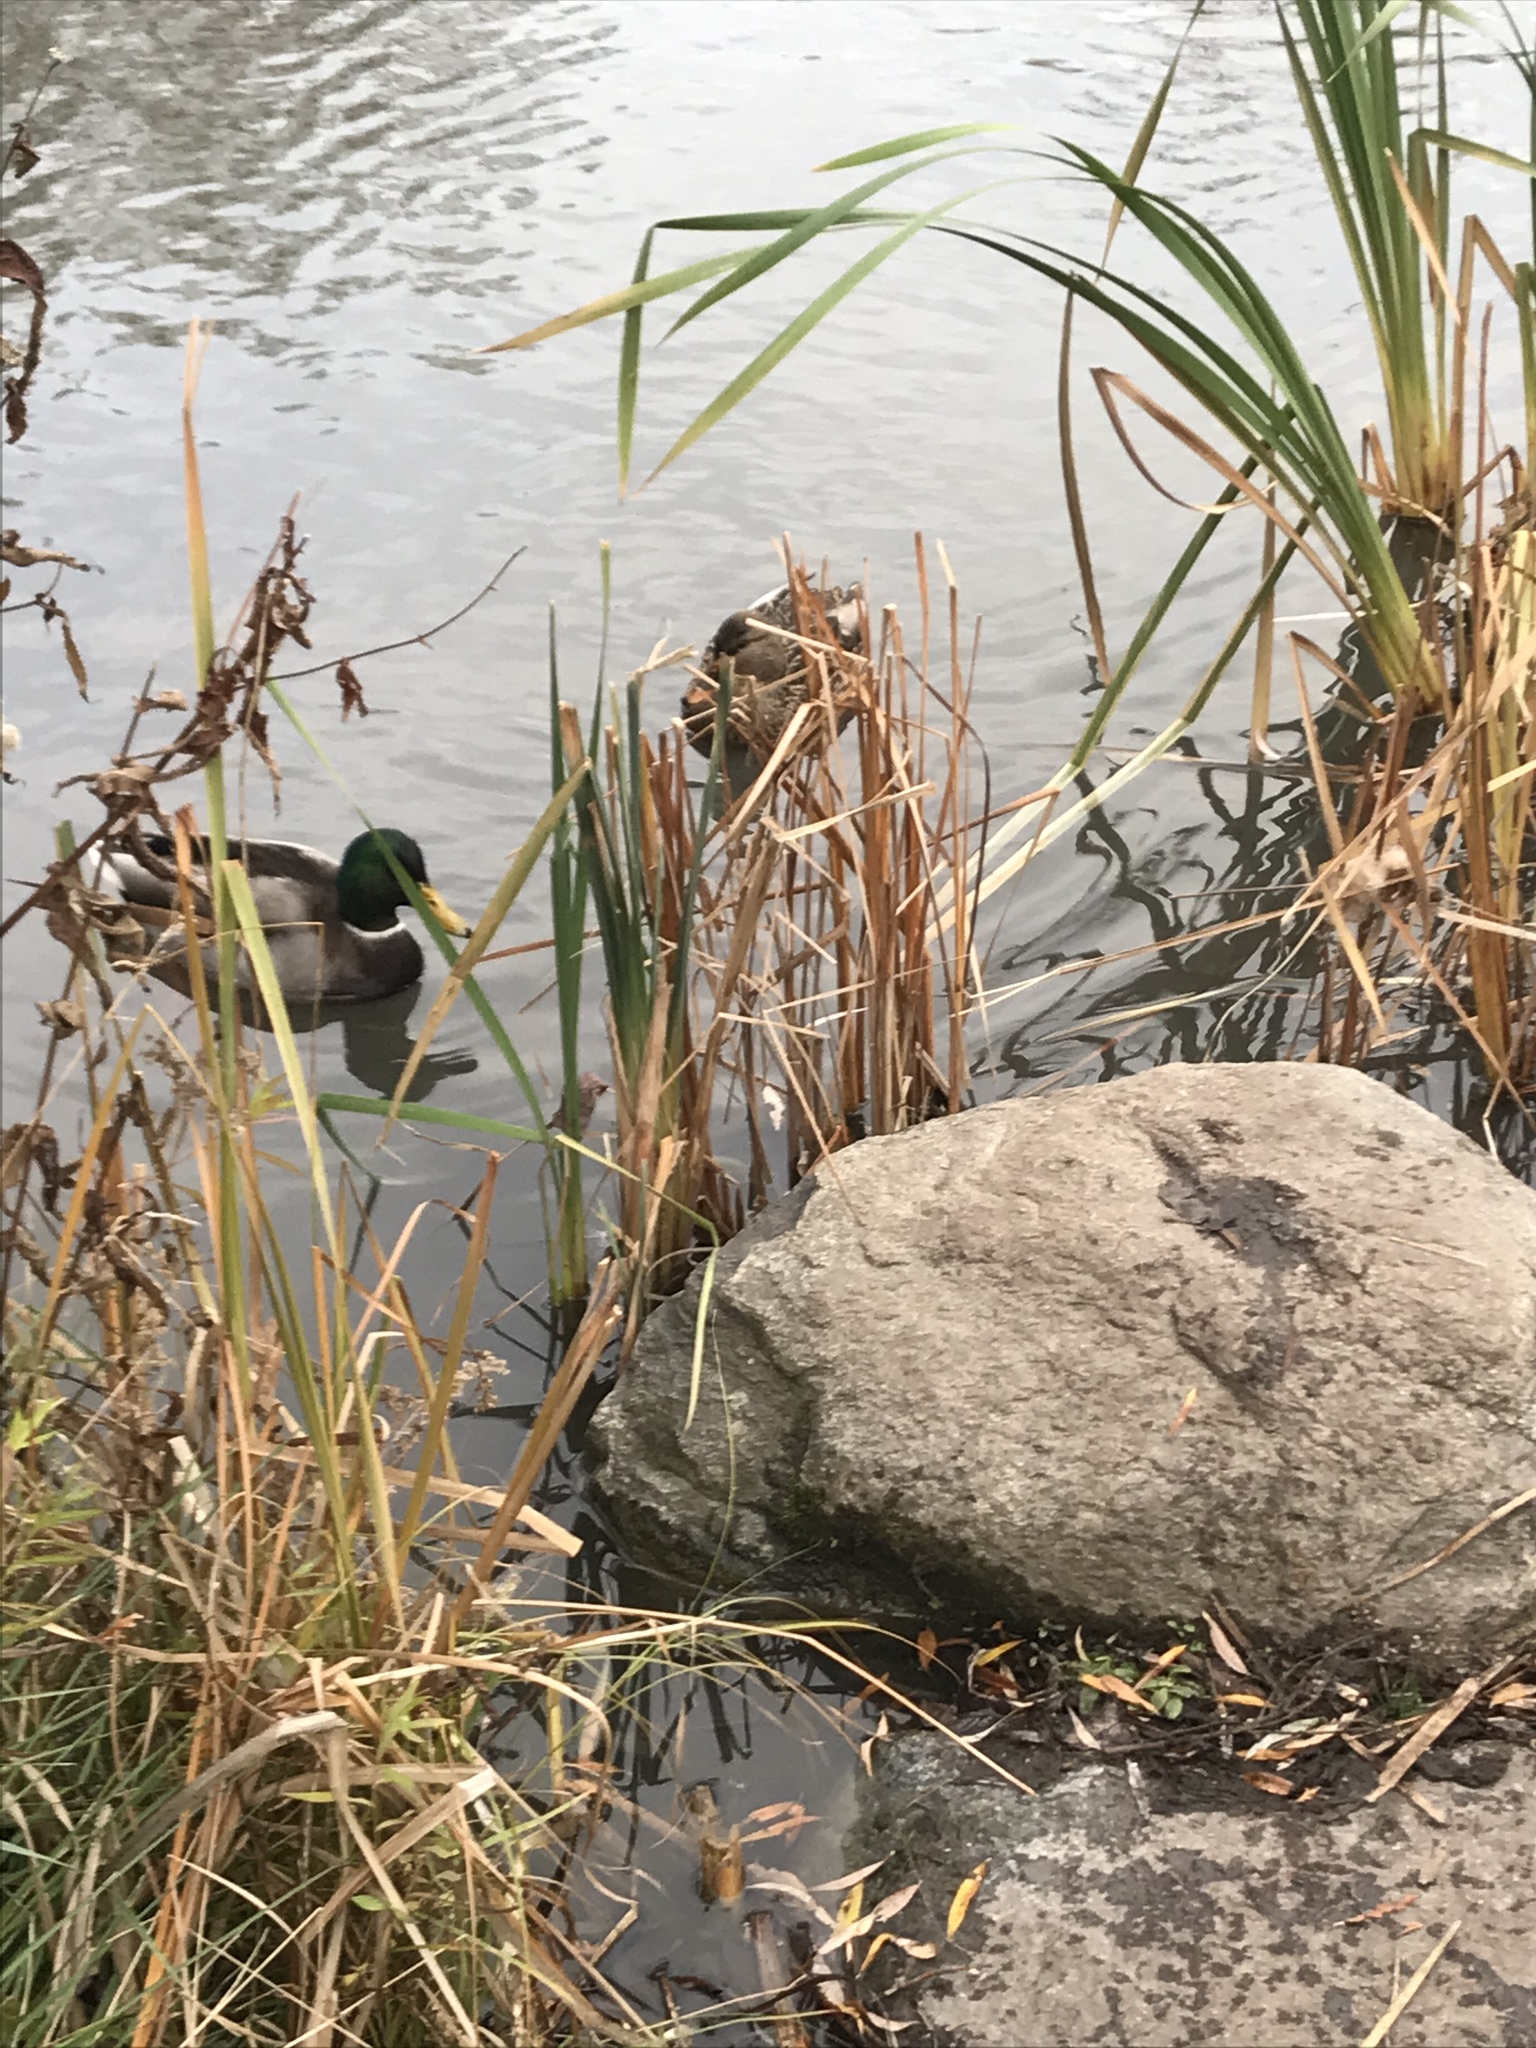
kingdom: Animalia
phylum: Chordata
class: Aves
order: Anseriformes
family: Anatidae
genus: Anas
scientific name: Anas platyrhynchos
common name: Mallard
